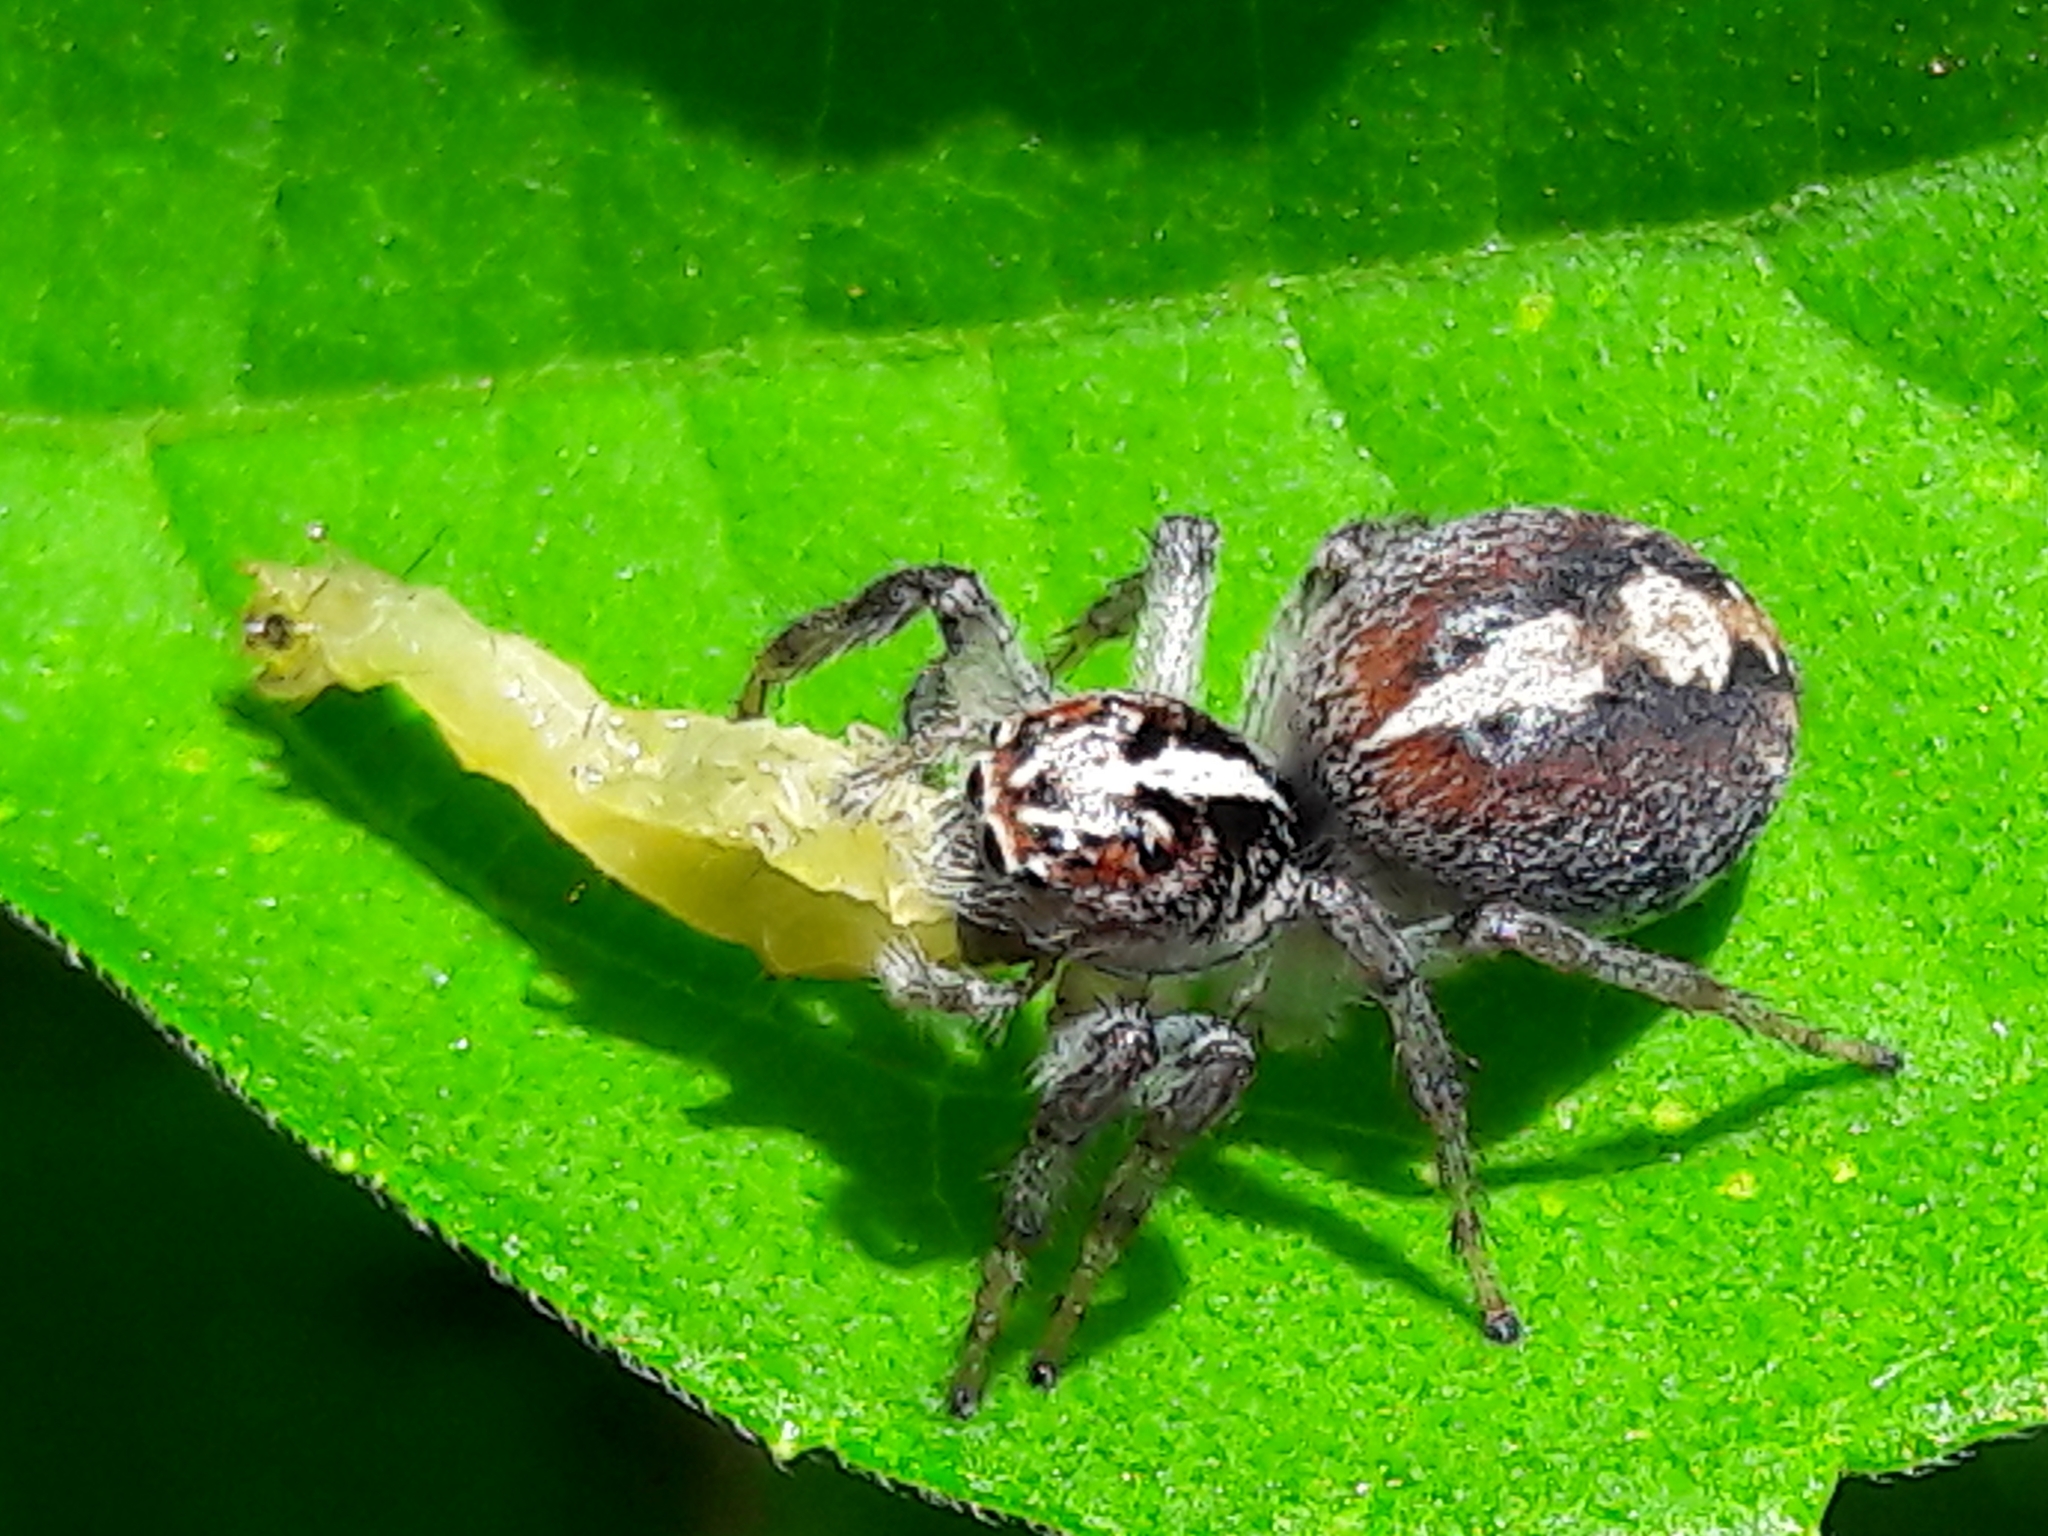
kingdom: Animalia
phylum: Arthropoda
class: Arachnida
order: Araneae
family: Salticidae
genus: Frigga
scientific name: Frigga
